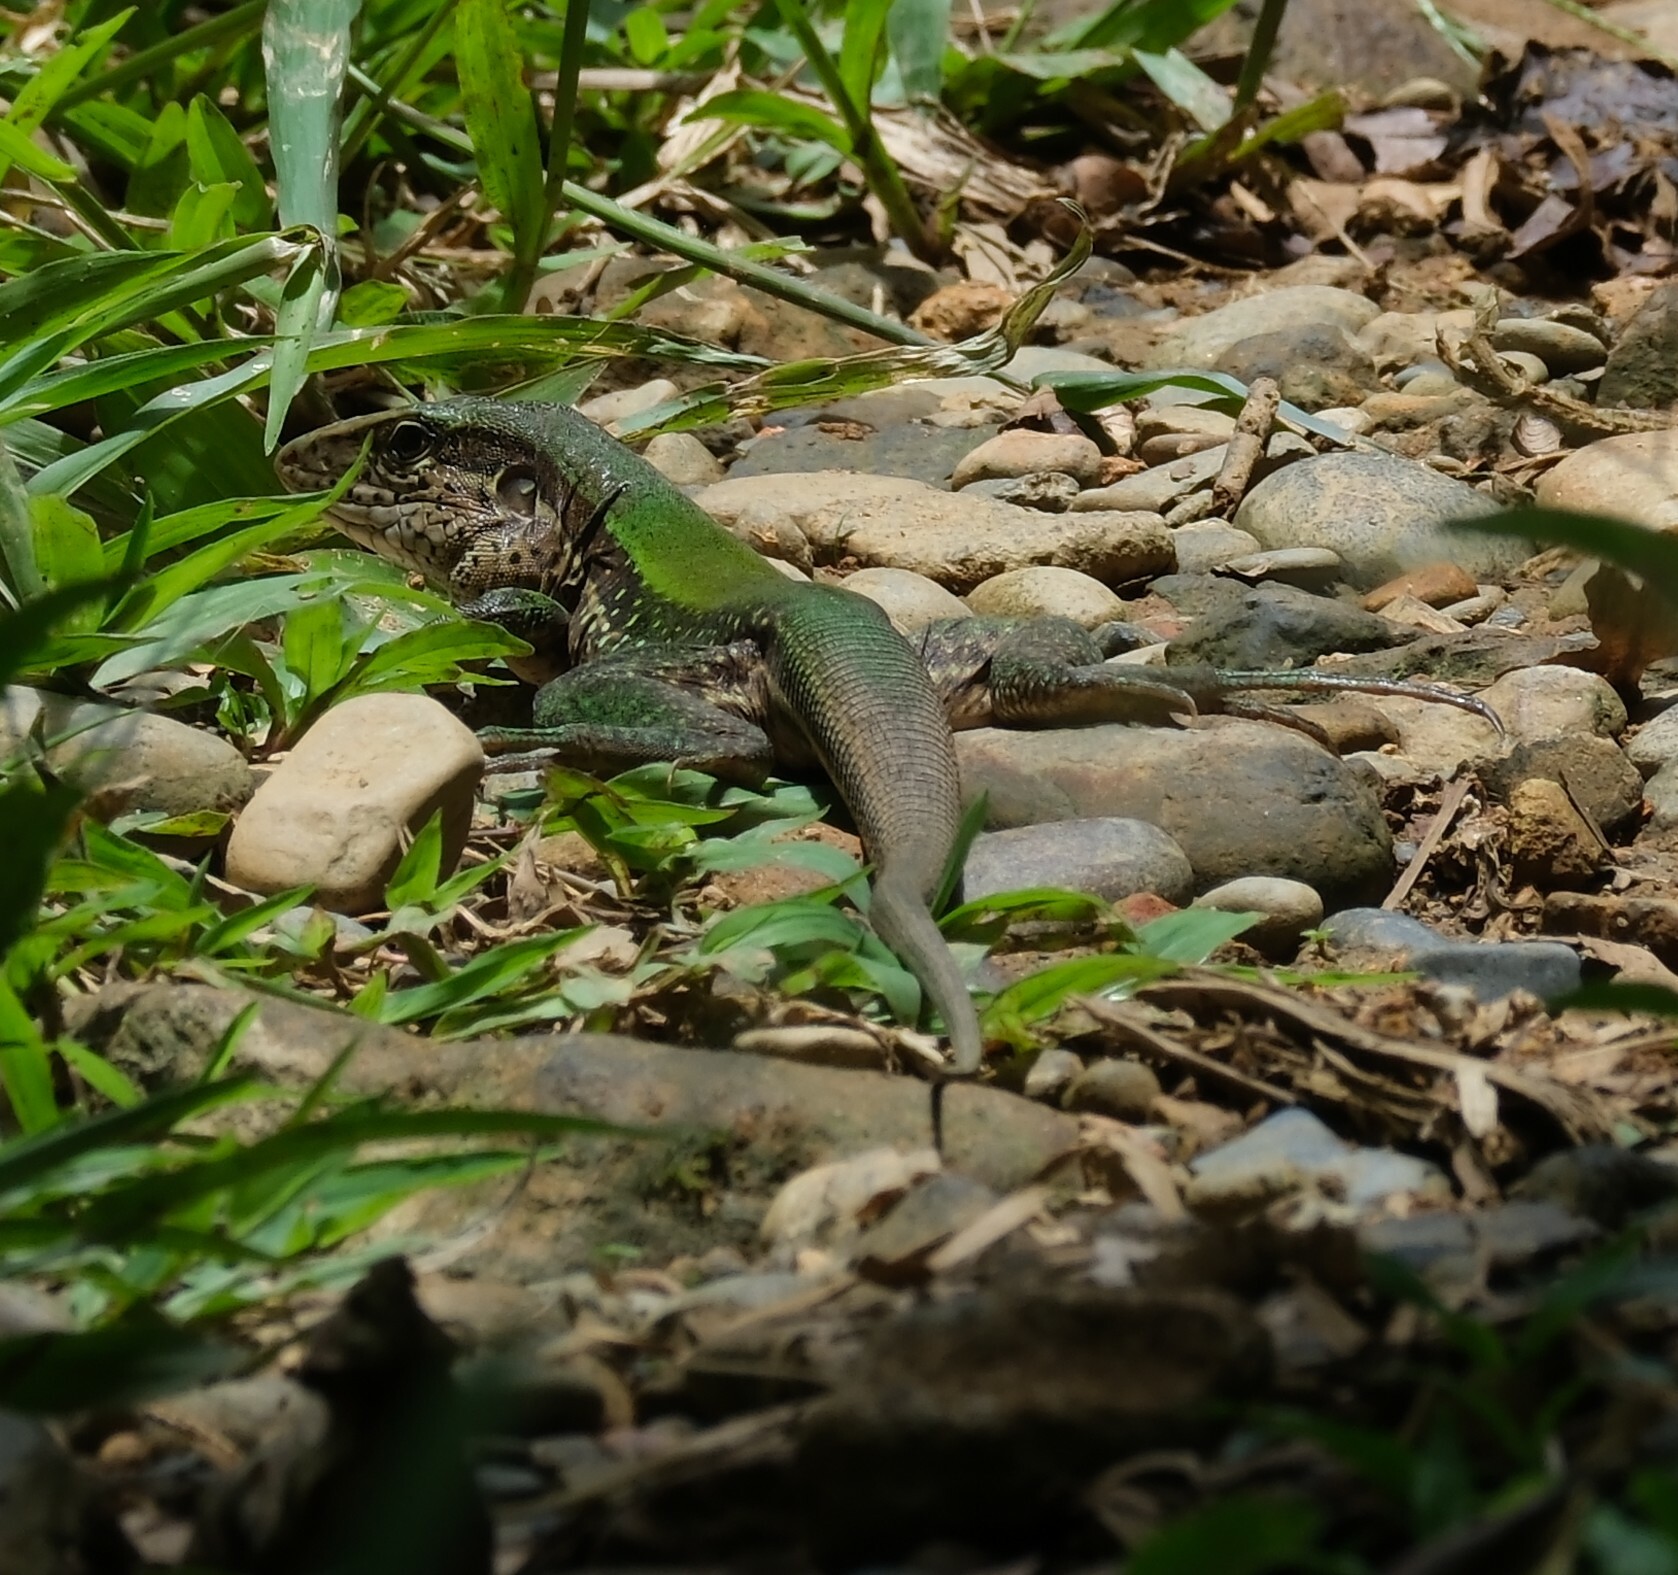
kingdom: Animalia
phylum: Chordata
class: Squamata
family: Teiidae
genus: Ameiva
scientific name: Ameiva ameiva
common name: Giant ameiva
